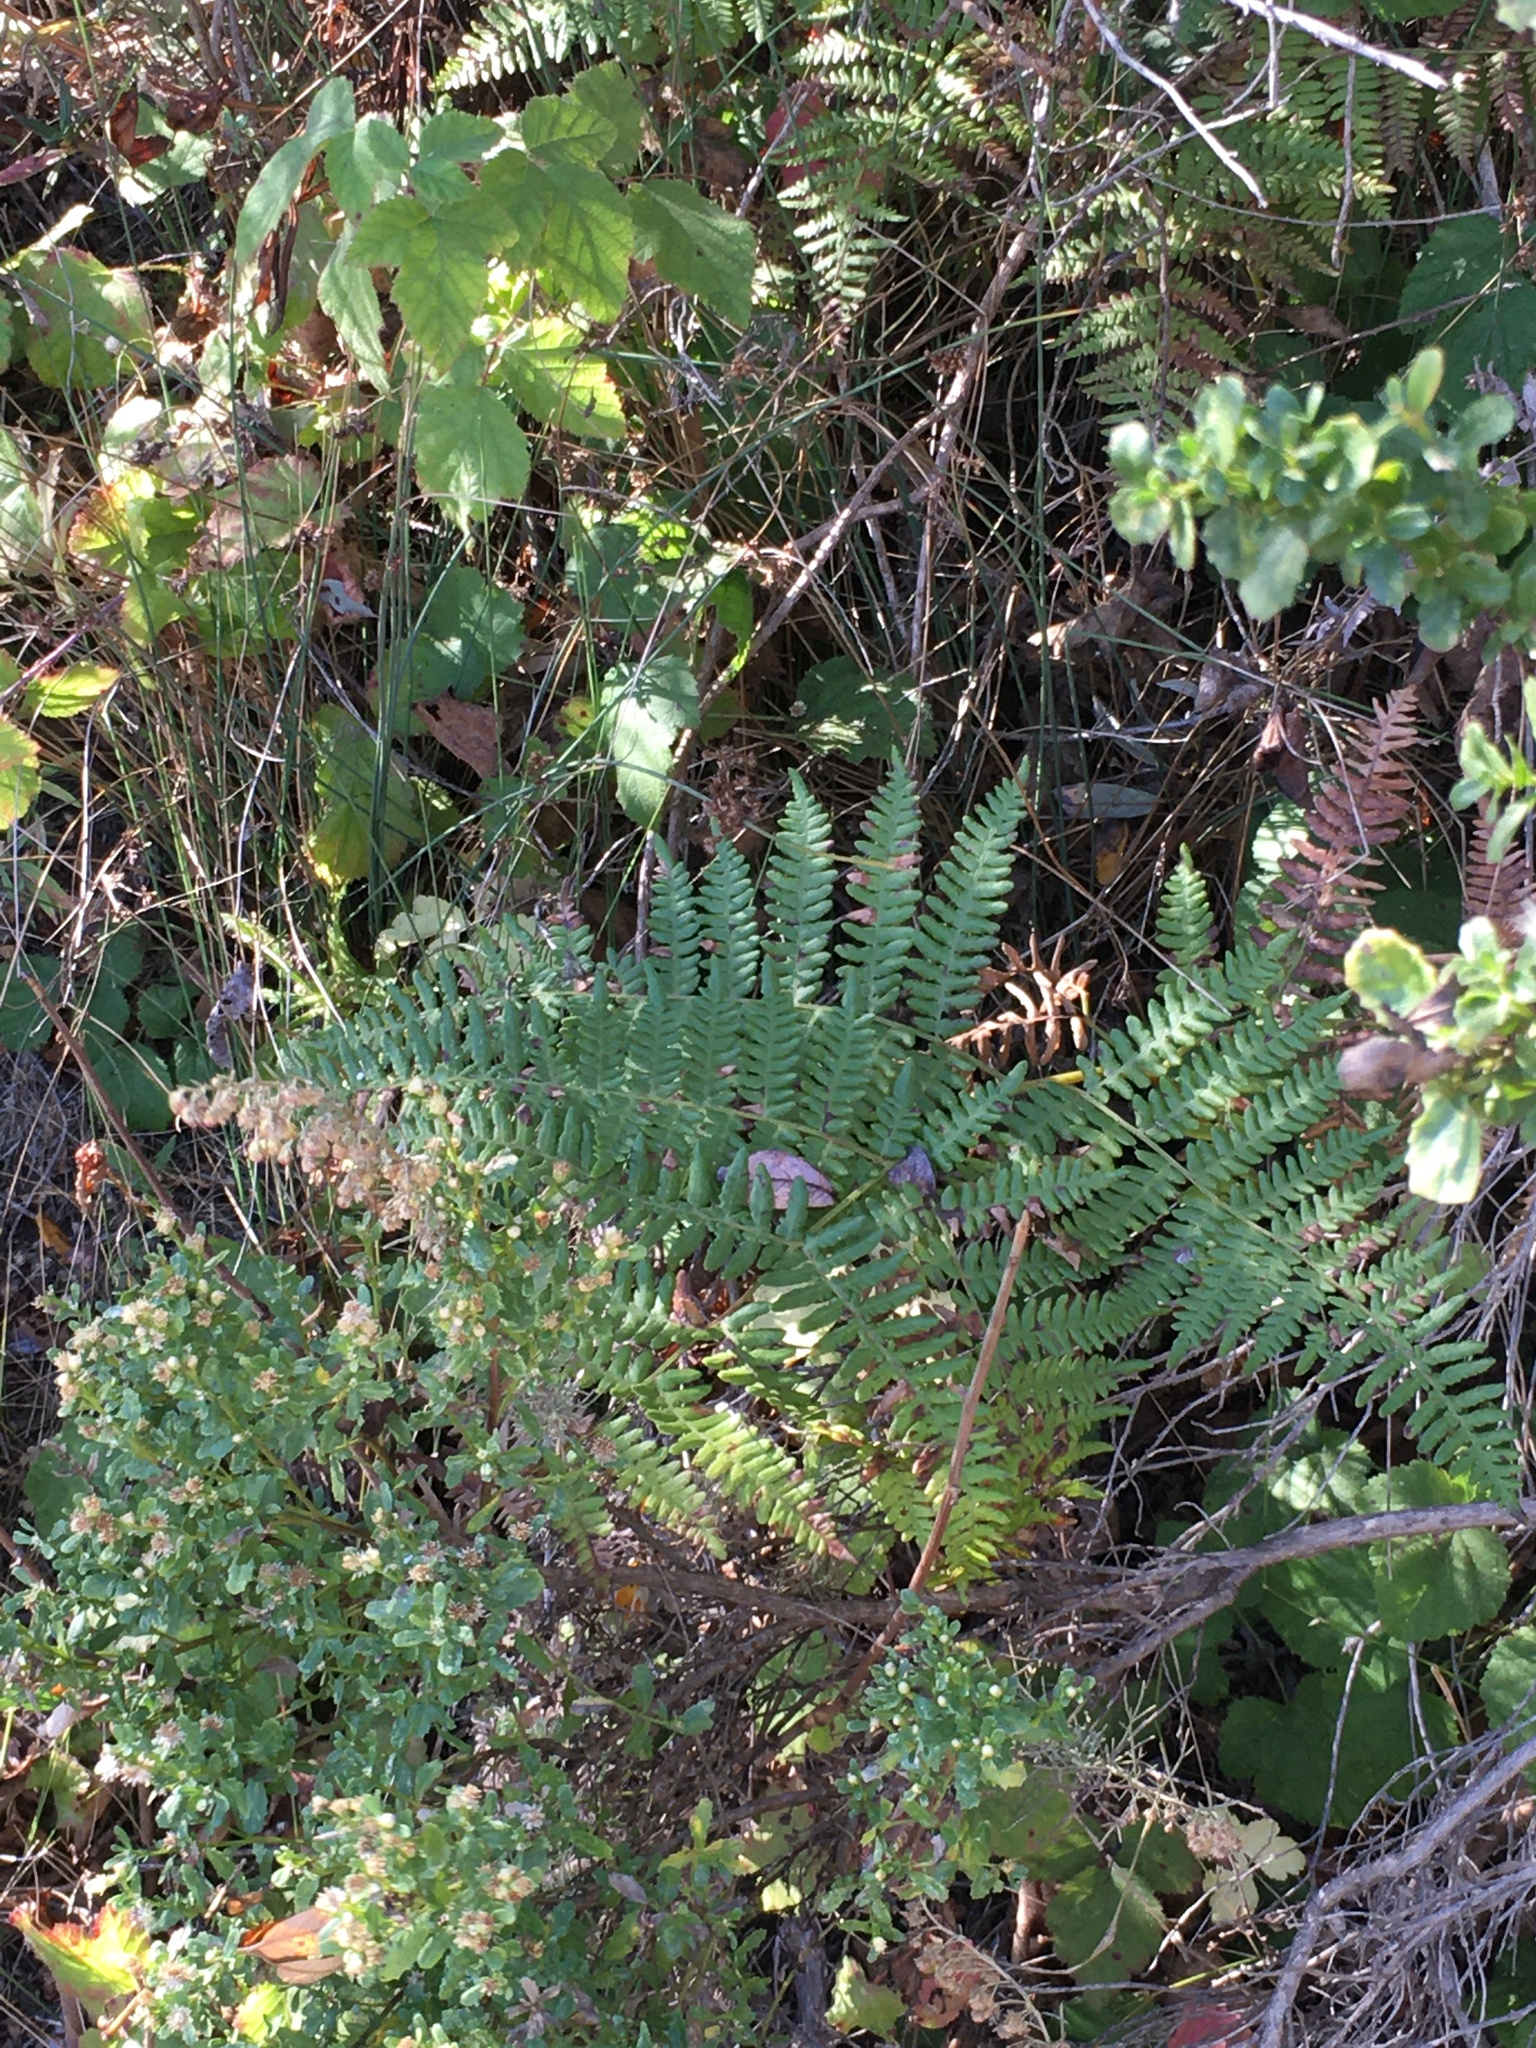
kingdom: Plantae
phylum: Tracheophyta
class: Polypodiopsida
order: Polypodiales
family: Dennstaedtiaceae
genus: Pteridium
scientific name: Pteridium aquilinum
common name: Bracken
